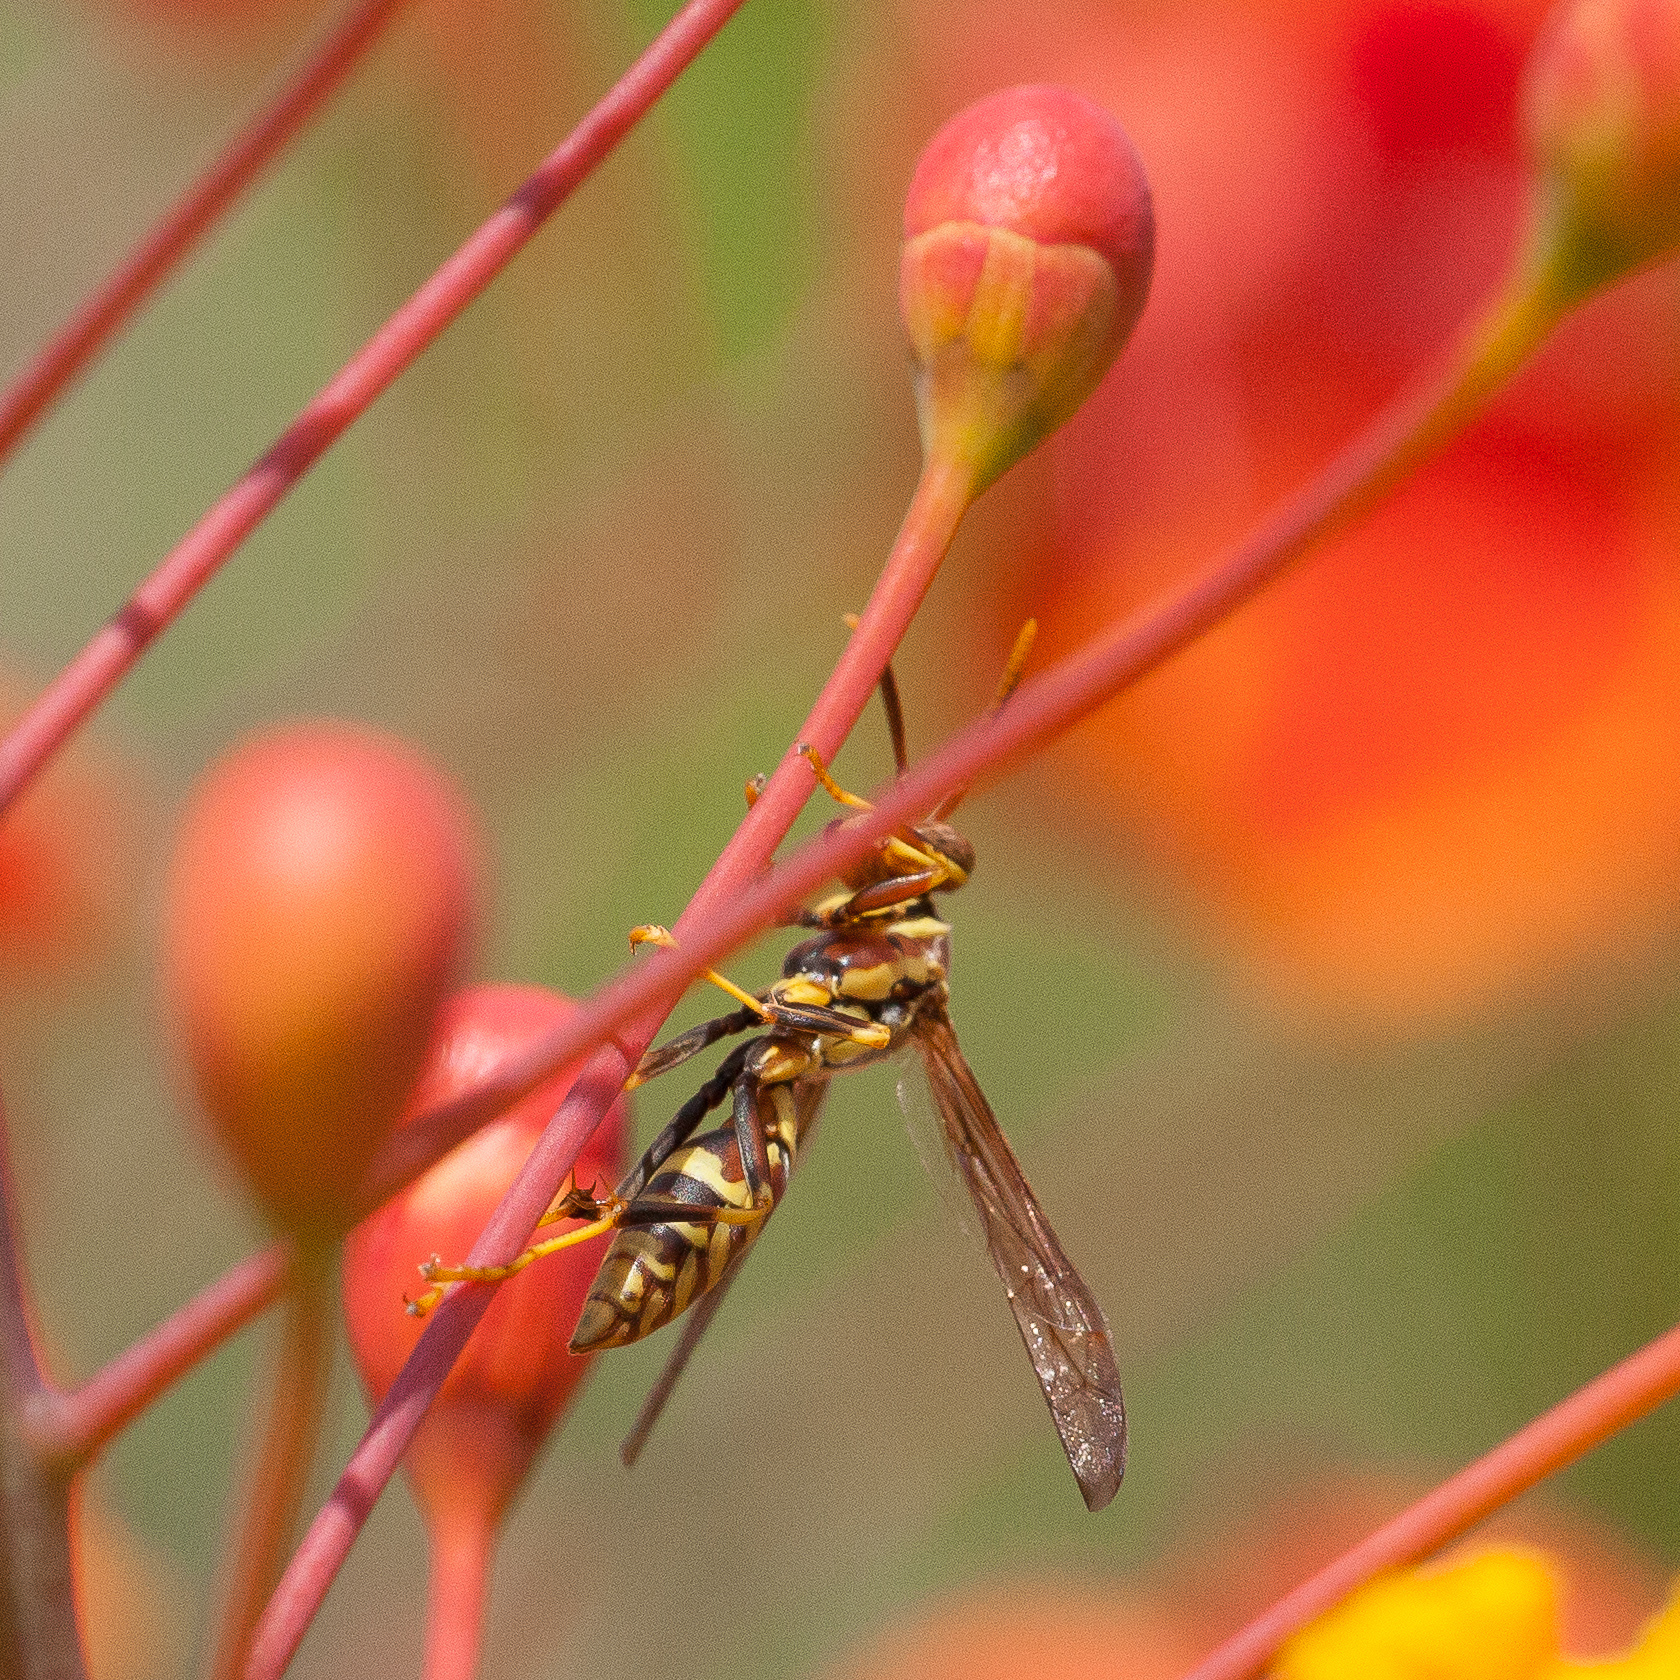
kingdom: Animalia
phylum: Arthropoda
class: Insecta
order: Hymenoptera
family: Eumenidae
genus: Polistes
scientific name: Polistes exclamans
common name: Paper wasp
